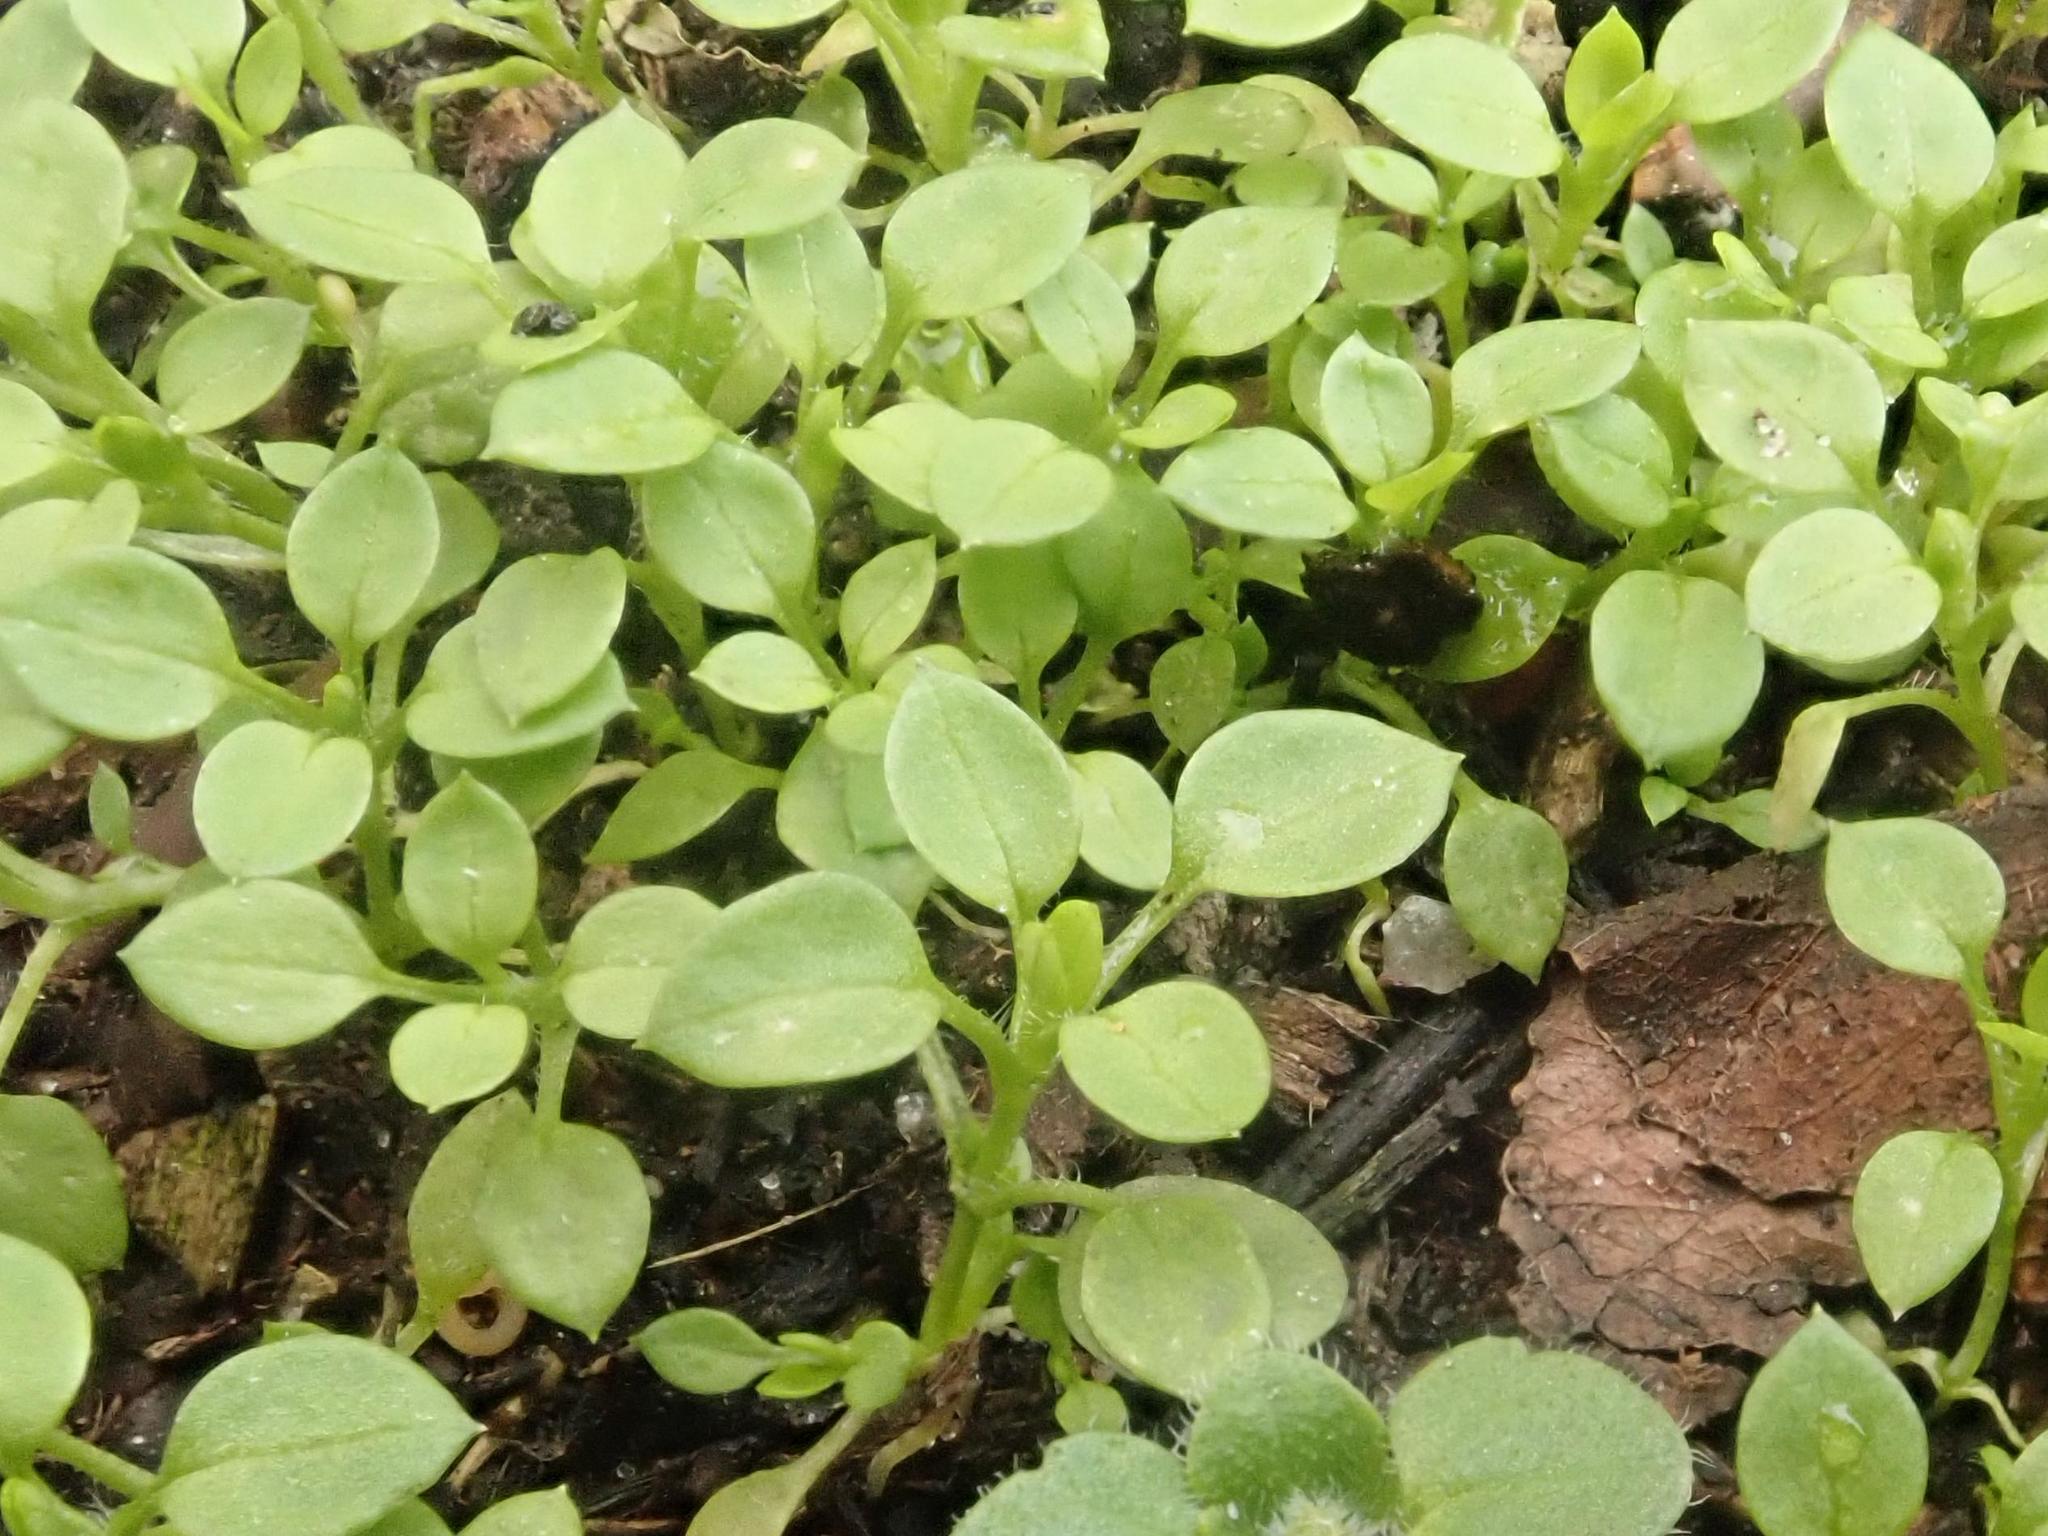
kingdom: Plantae
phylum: Tracheophyta
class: Magnoliopsida
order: Caryophyllales
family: Caryophyllaceae
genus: Stellaria
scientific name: Stellaria media
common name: Common chickweed
